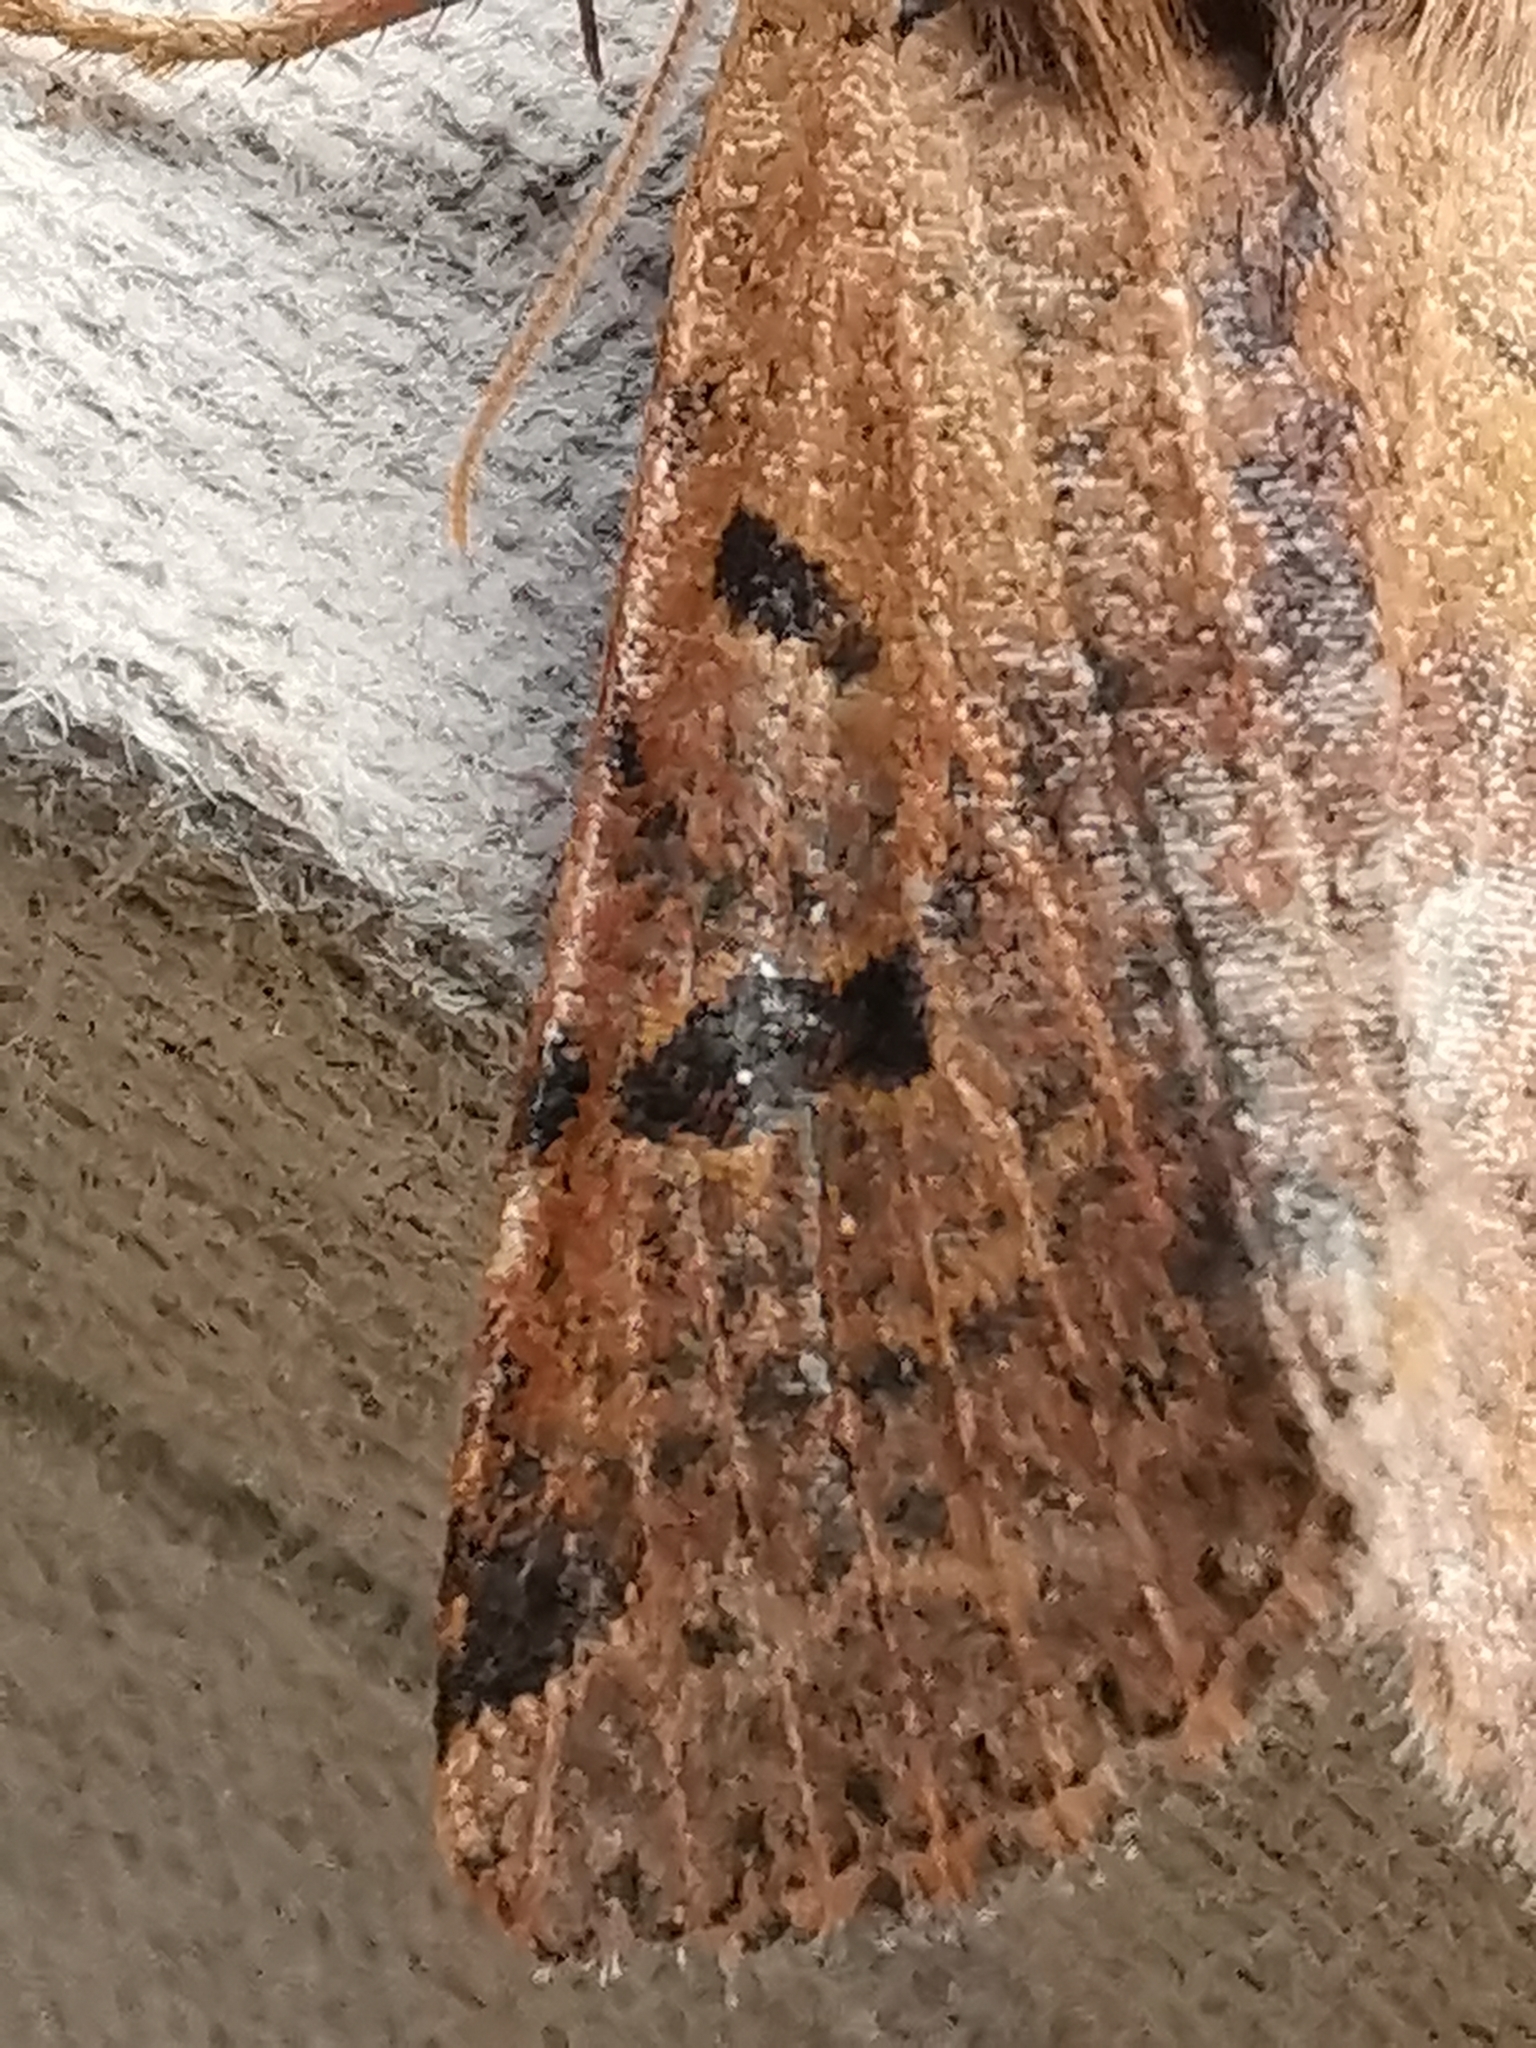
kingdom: Animalia
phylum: Arthropoda
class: Insecta
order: Lepidoptera
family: Noctuidae
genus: Agrochola
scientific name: Agrochola lychnidis
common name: Beaded chestnut
